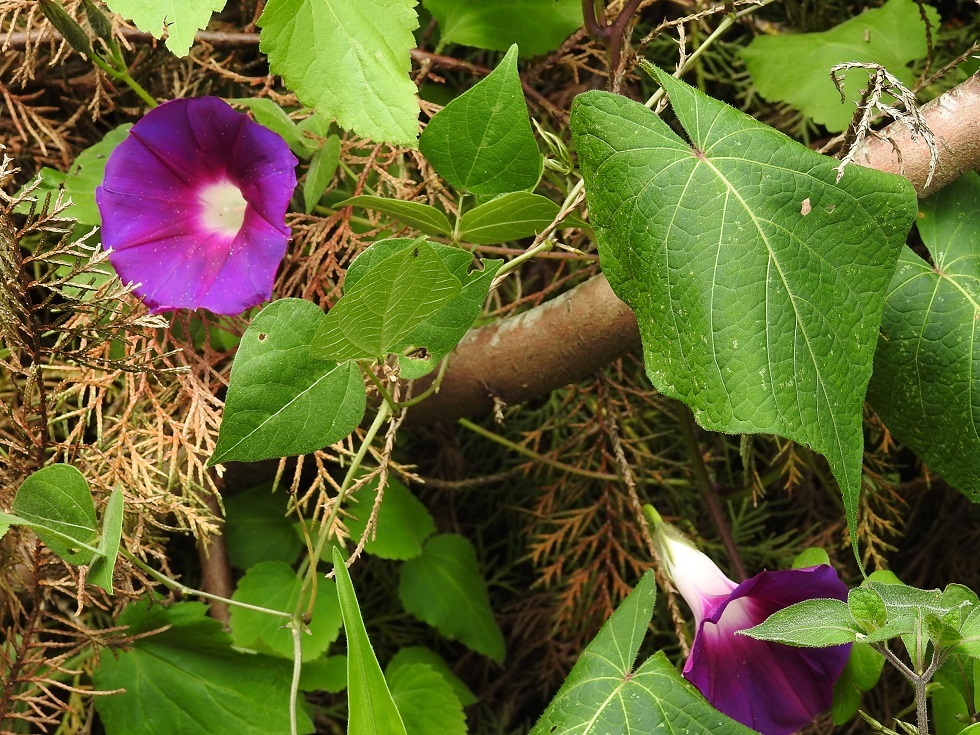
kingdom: Plantae
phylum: Tracheophyta
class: Magnoliopsida
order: Solanales
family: Convolvulaceae
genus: Ipomoea
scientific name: Ipomoea orizabensis
